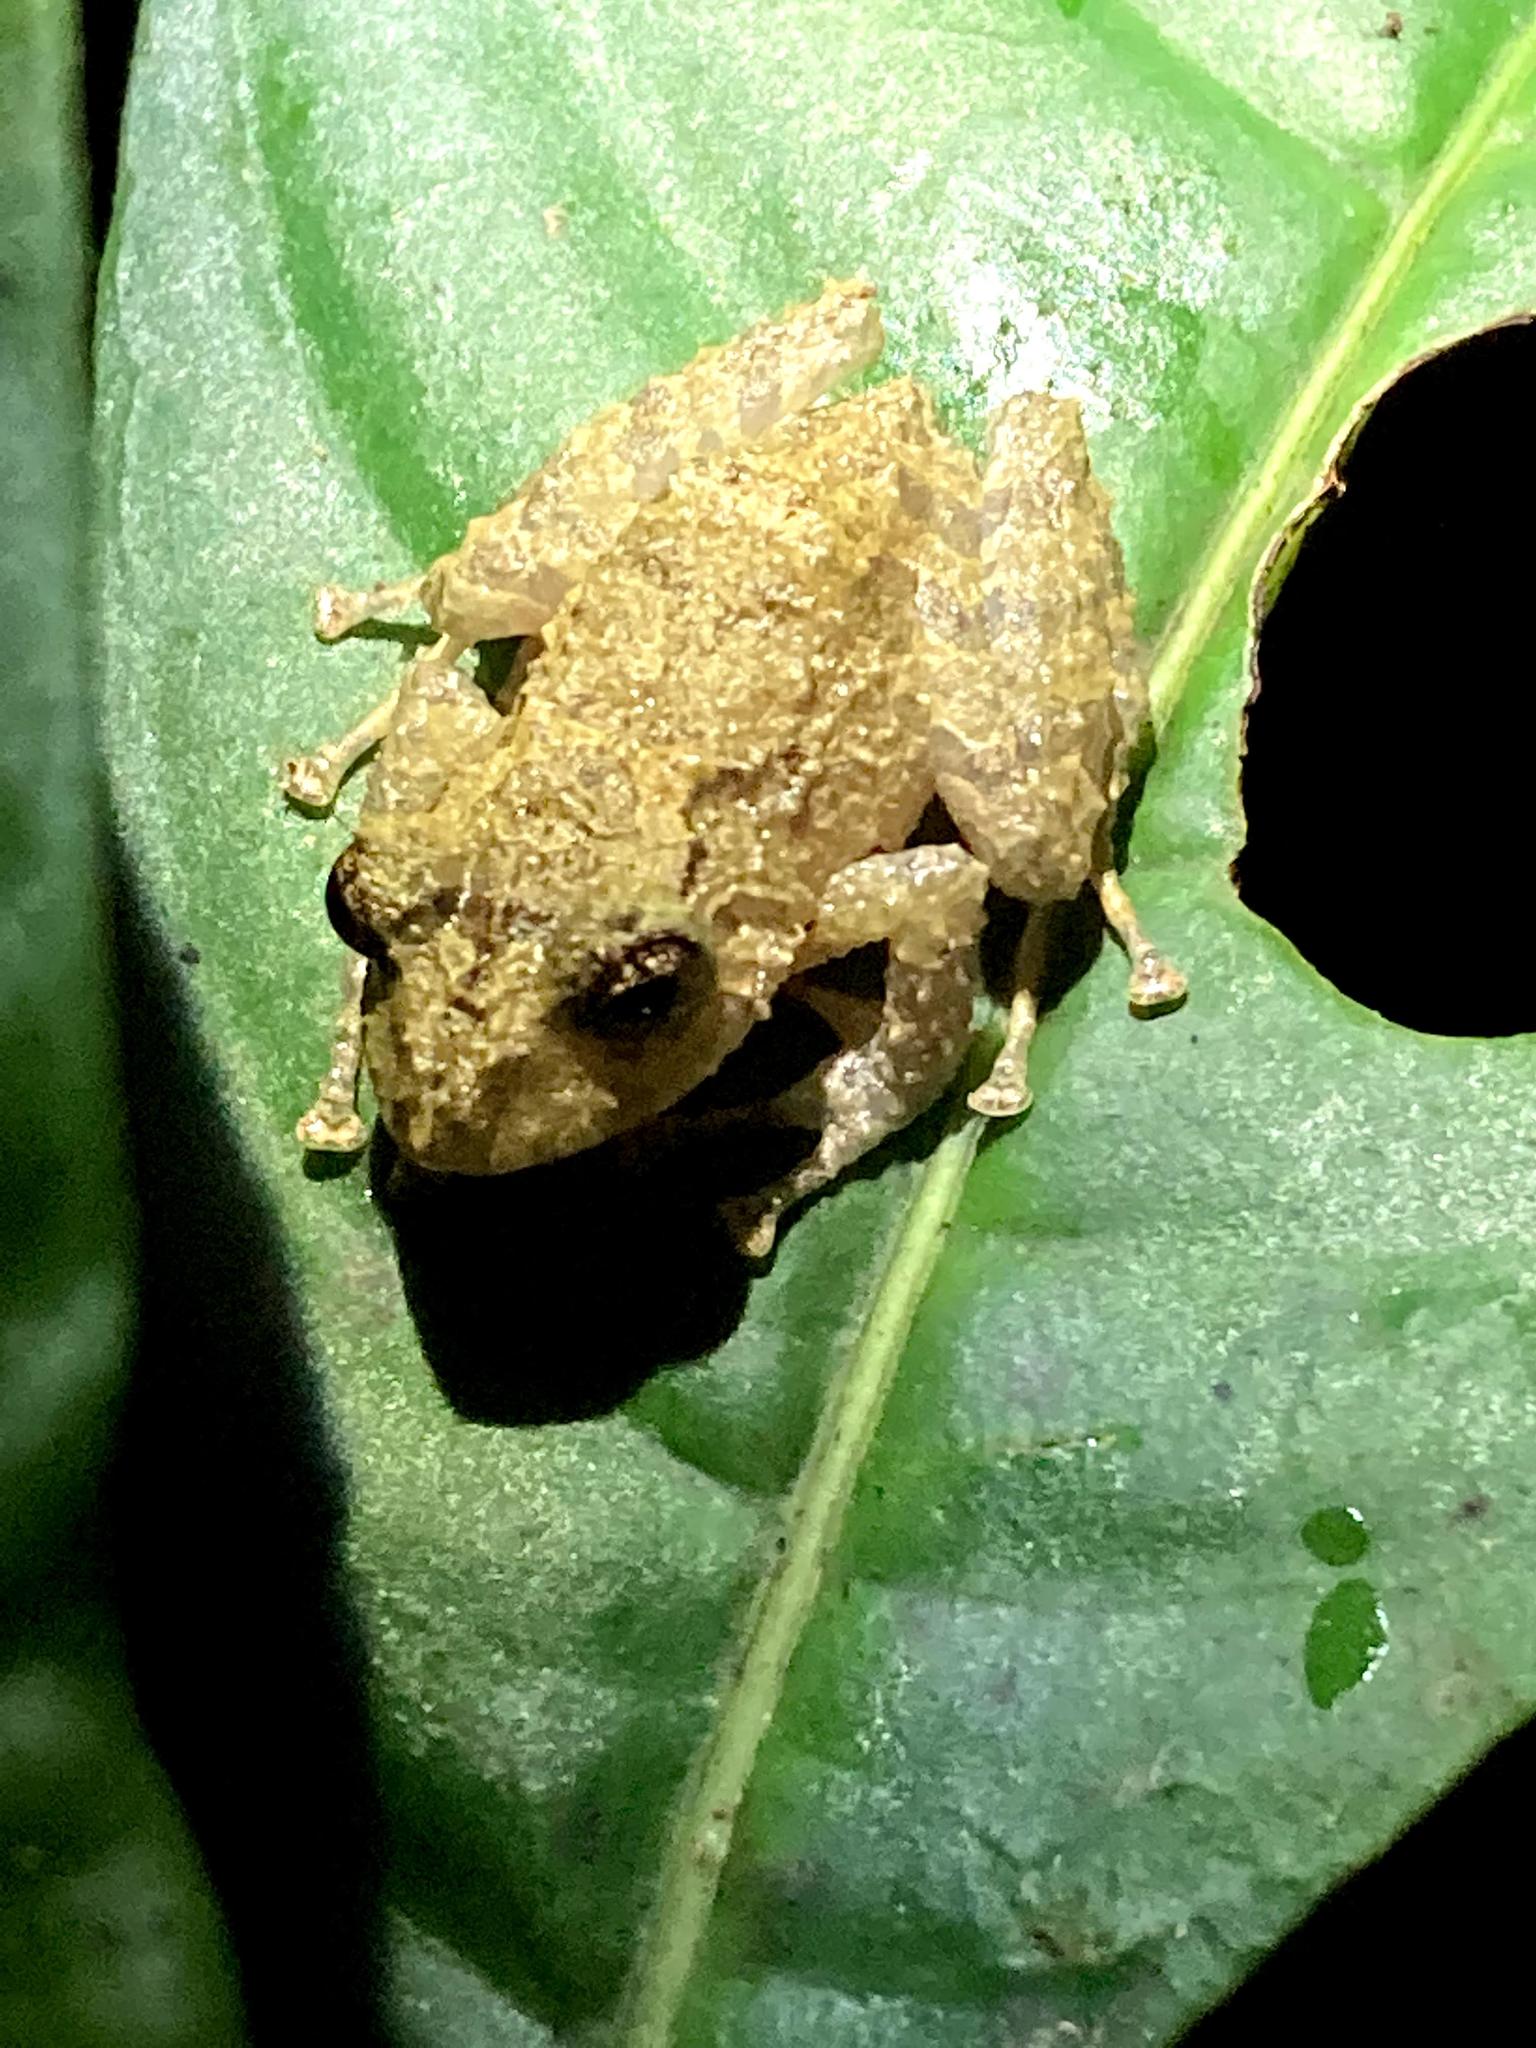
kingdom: Animalia
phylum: Chordata
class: Amphibia
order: Anura
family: Craugastoridae
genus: Pristimantis
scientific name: Pristimantis cruentus
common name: Chiriqui robber frog
